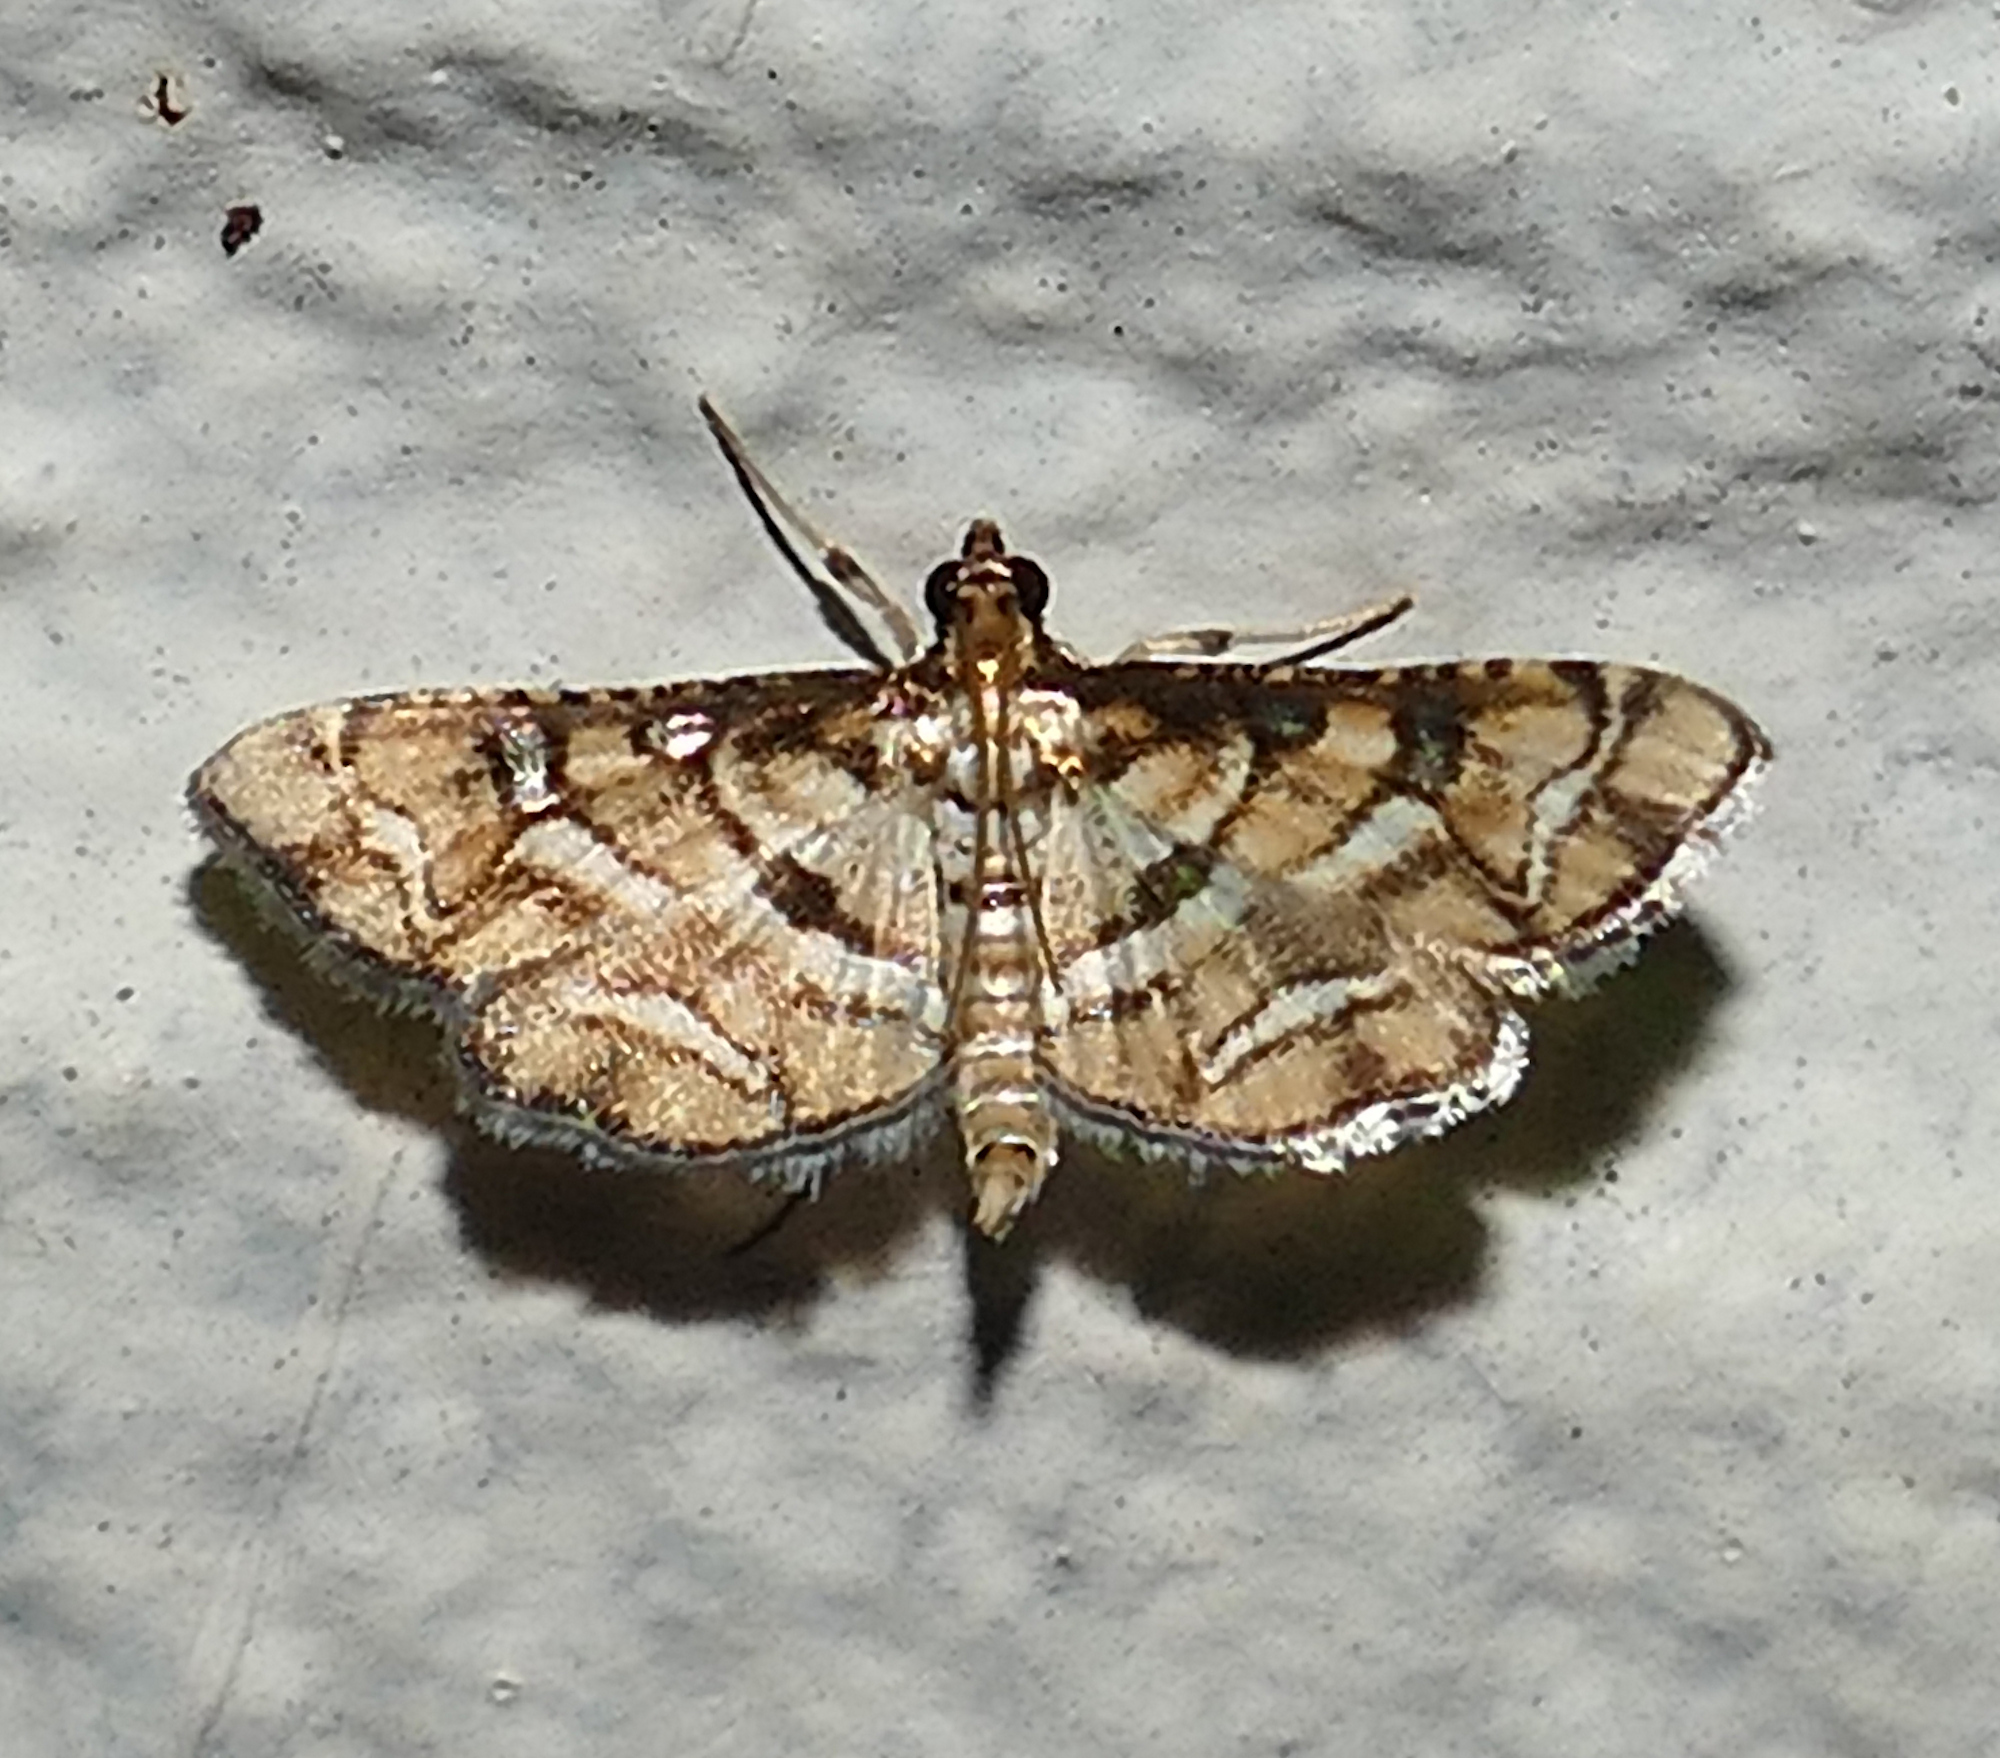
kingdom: Animalia
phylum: Arthropoda
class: Insecta
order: Lepidoptera
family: Crambidae
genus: Hileithia
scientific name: Hileithia magualis
